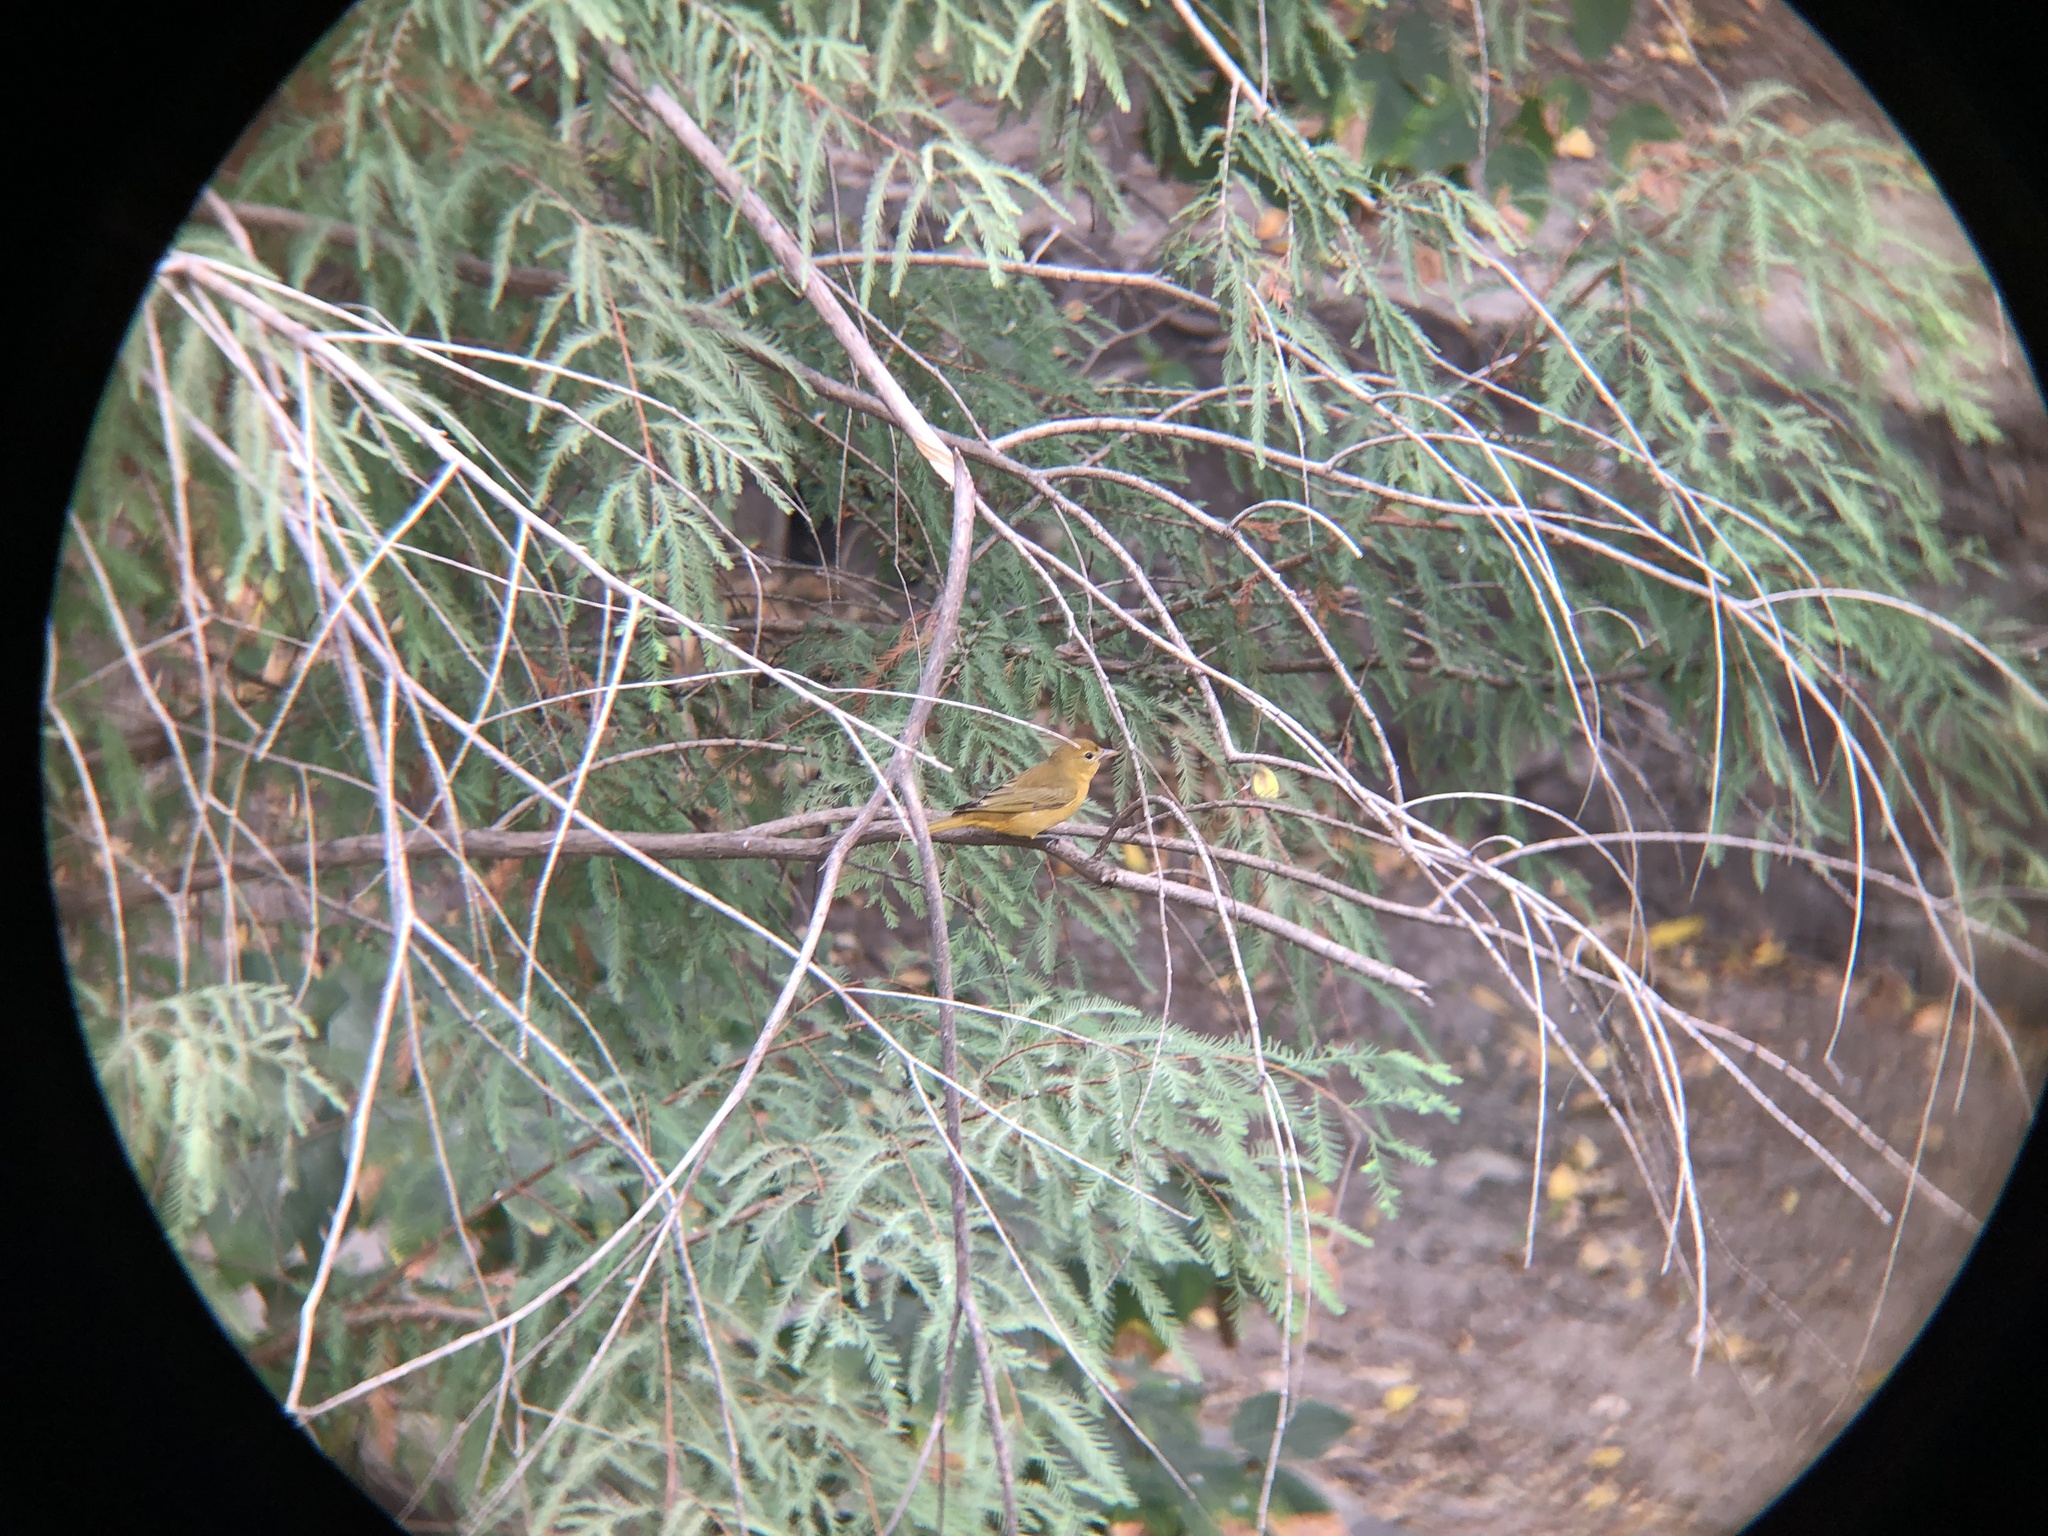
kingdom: Animalia
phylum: Chordata
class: Aves
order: Passeriformes
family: Cardinalidae
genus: Piranga
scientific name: Piranga rubra
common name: Summer tanager
